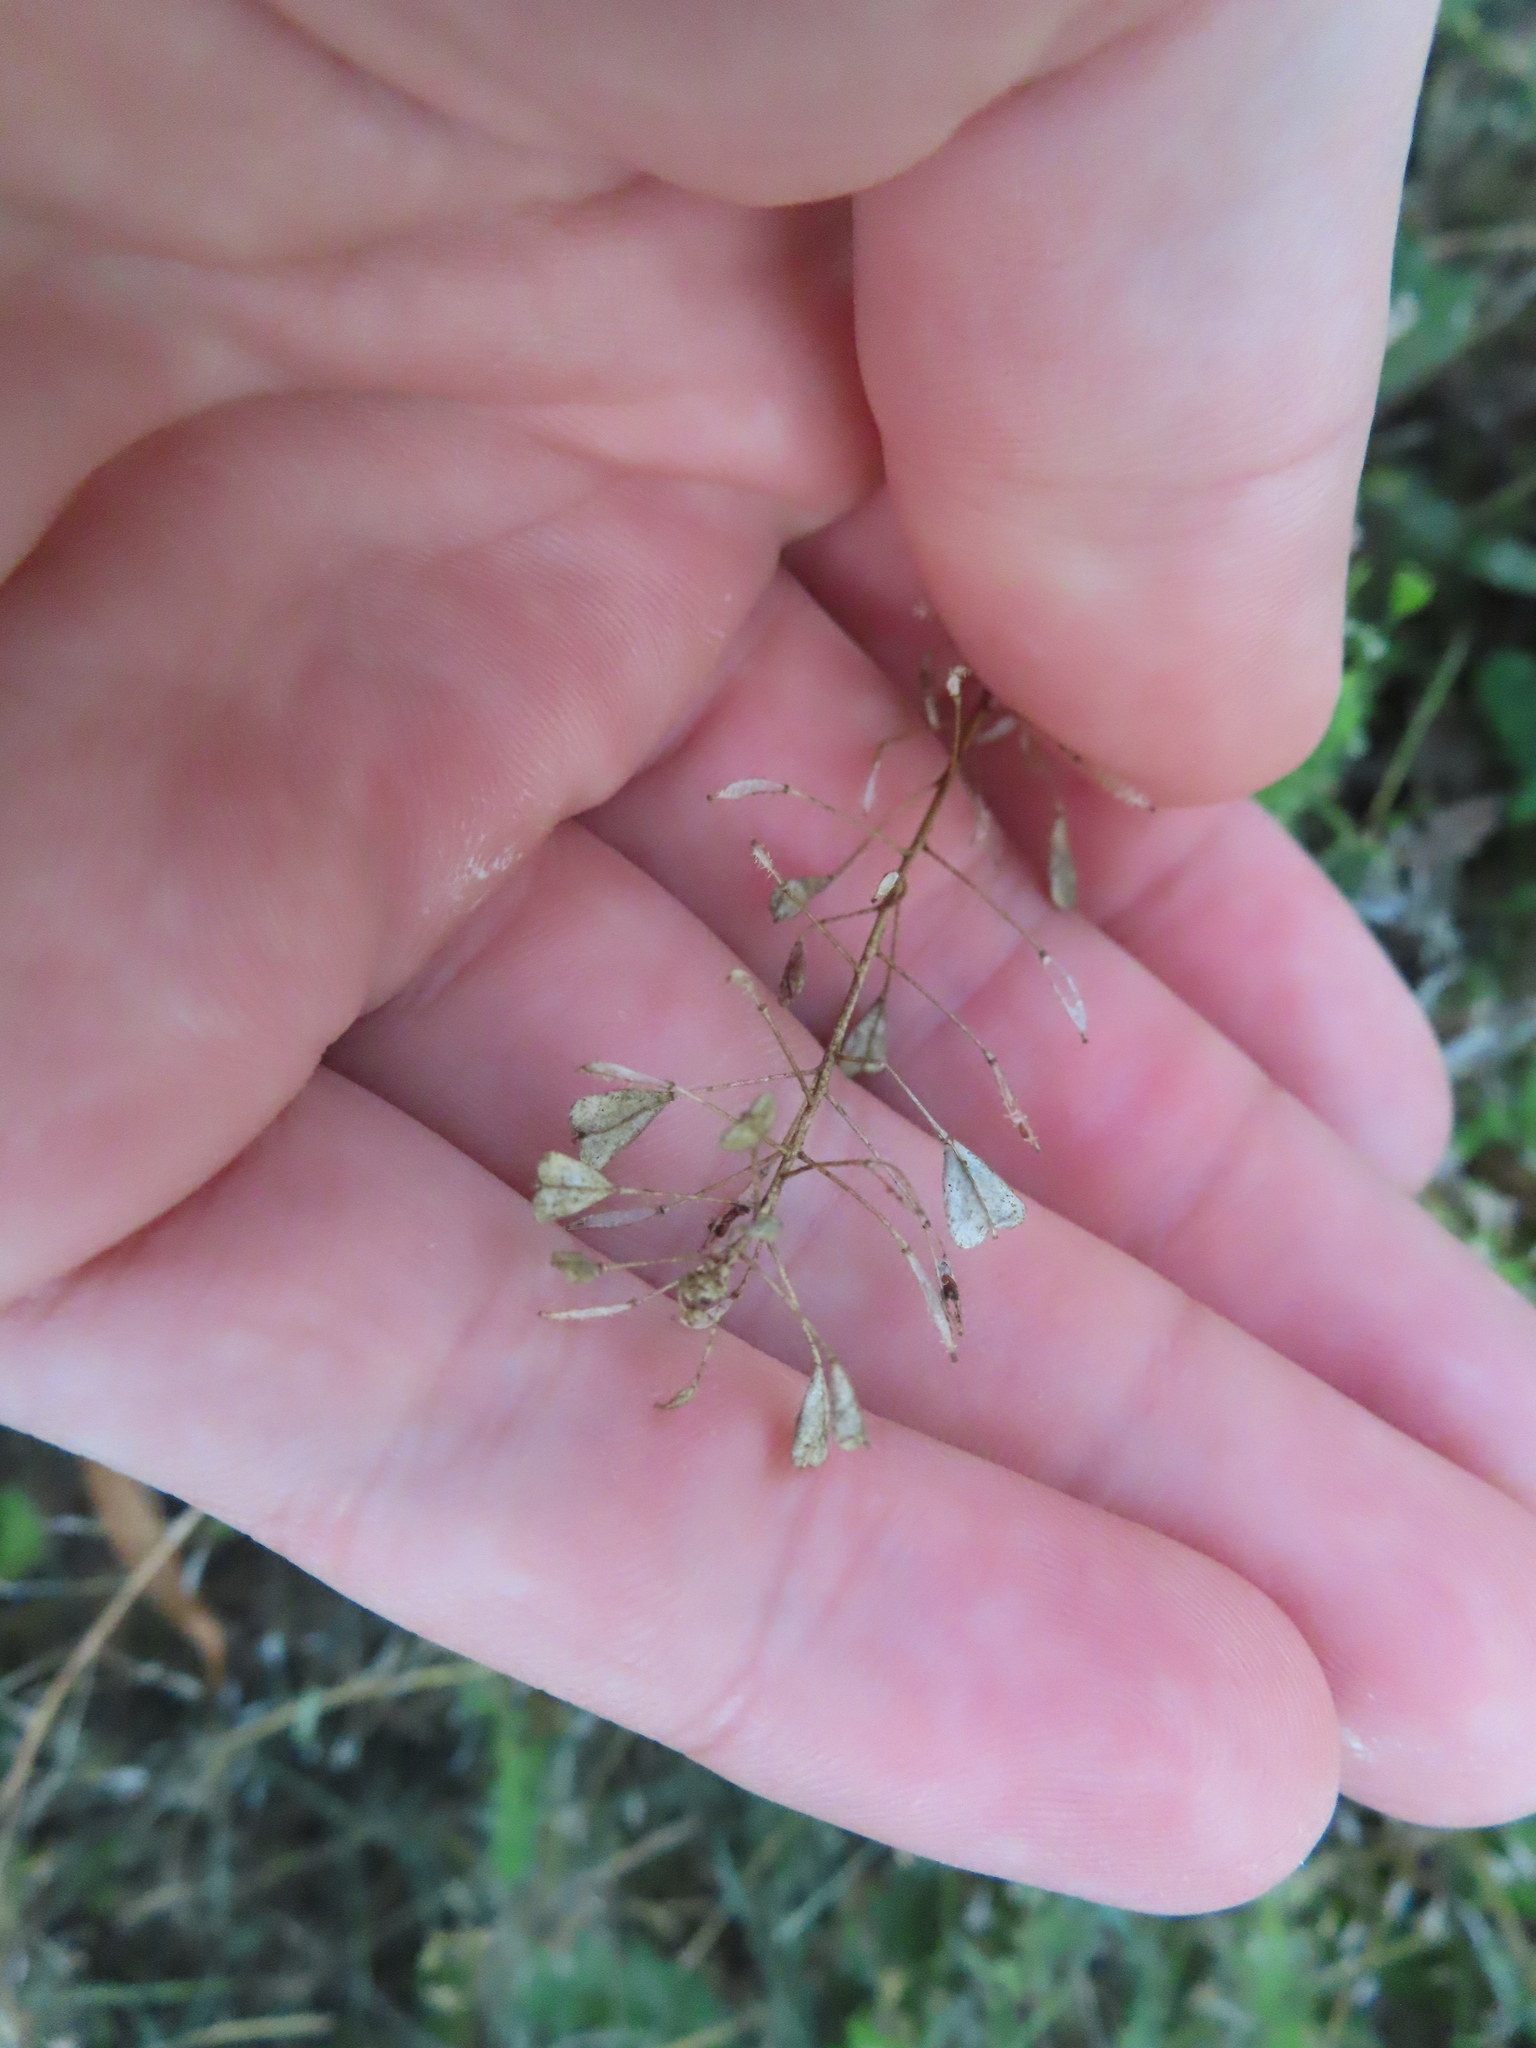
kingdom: Plantae
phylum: Tracheophyta
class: Magnoliopsida
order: Brassicales
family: Brassicaceae
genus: Capsella
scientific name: Capsella bursa-pastoris
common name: Shepherd's purse
